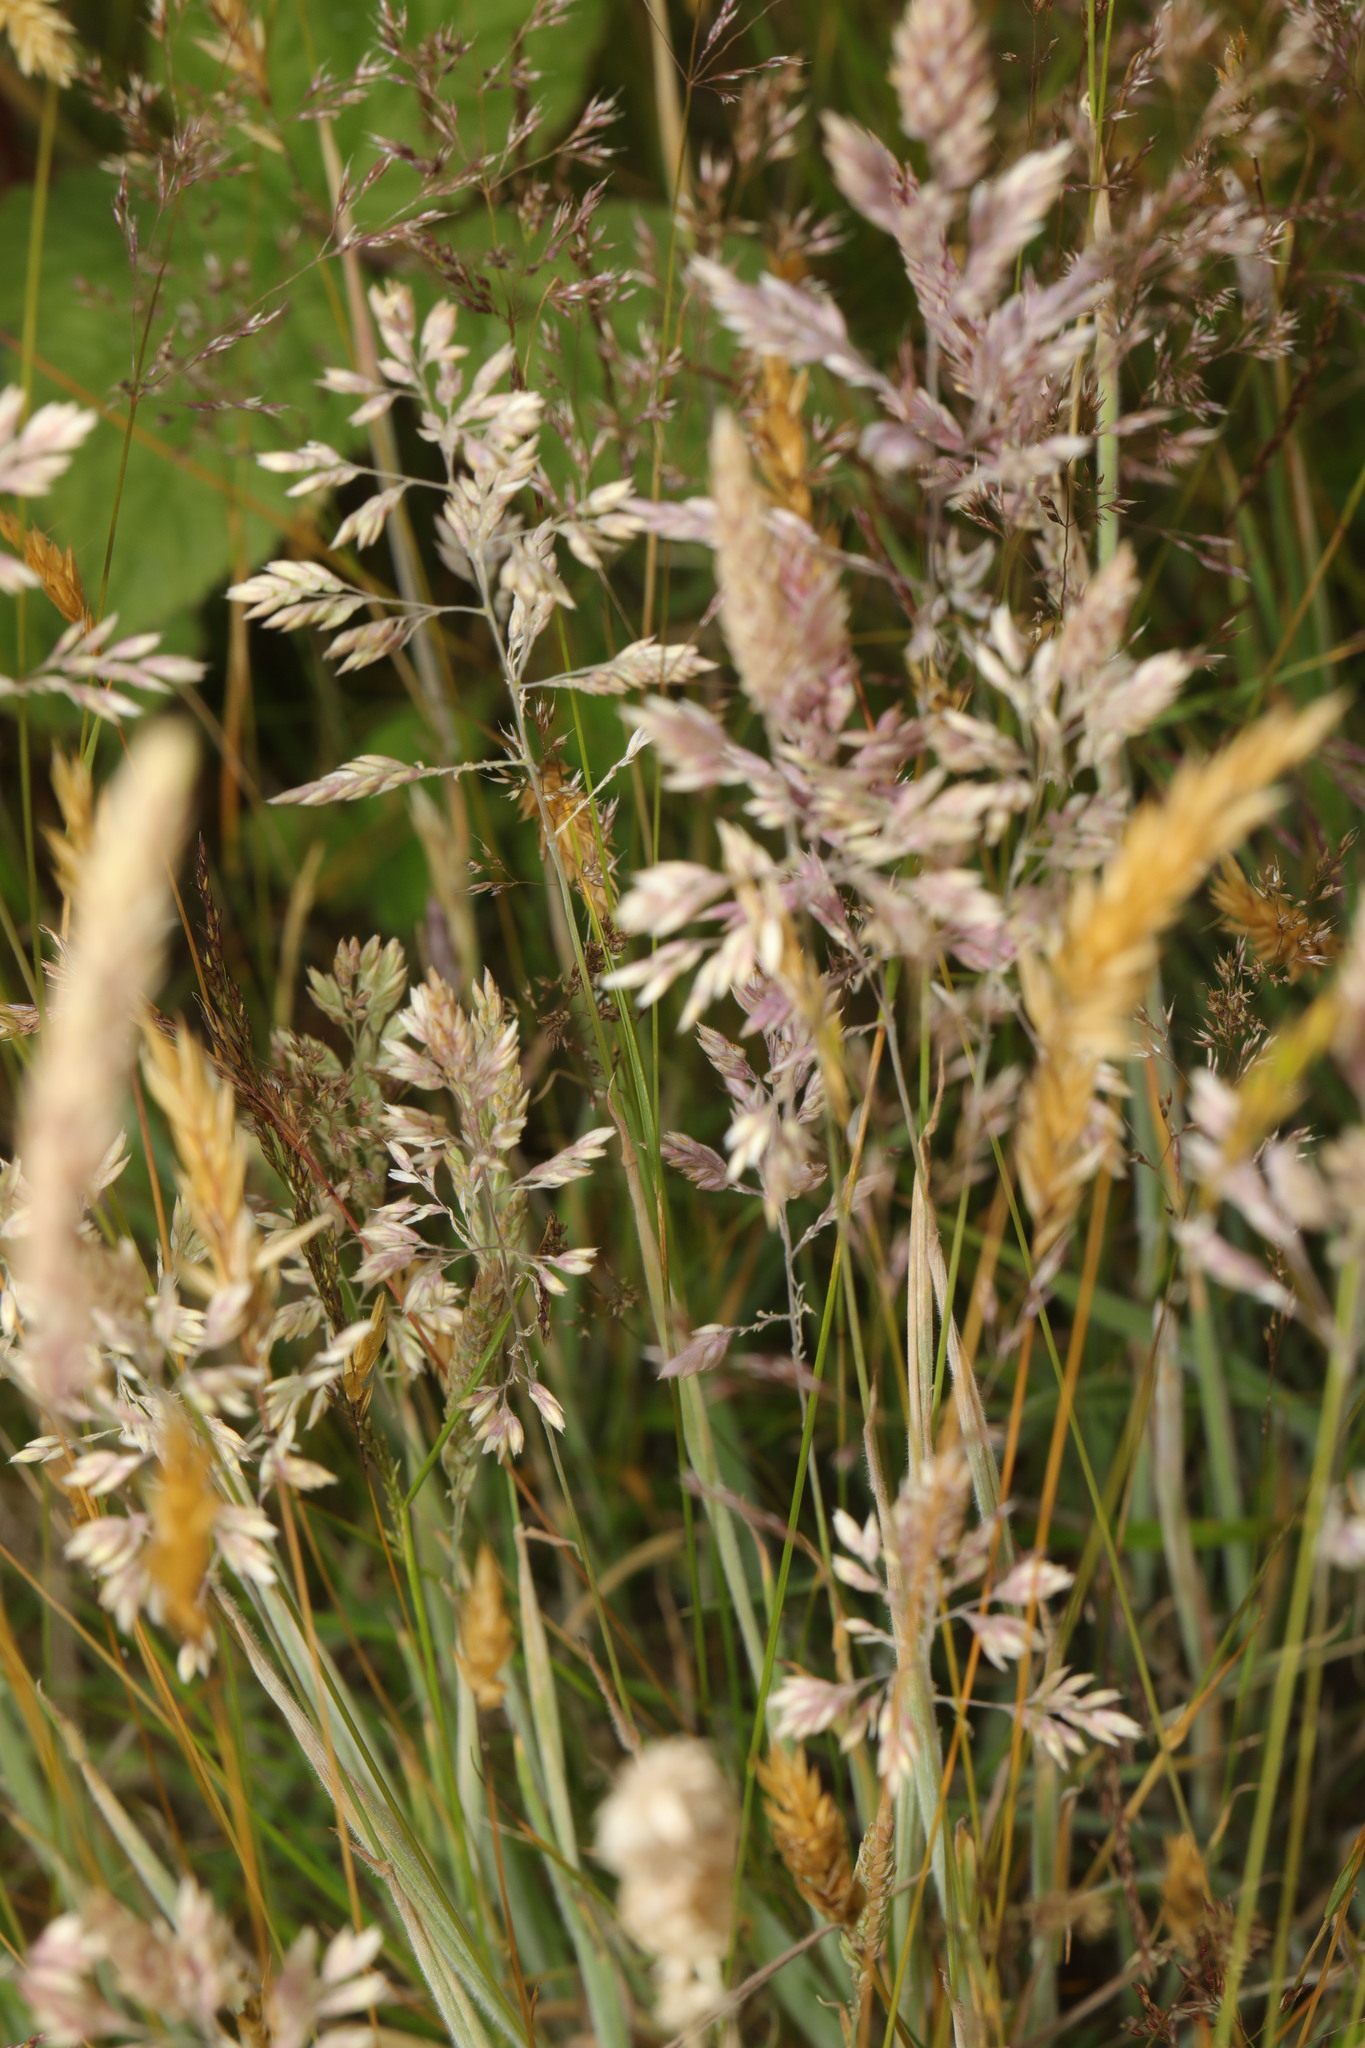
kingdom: Plantae
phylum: Tracheophyta
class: Liliopsida
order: Poales
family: Poaceae
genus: Holcus
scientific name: Holcus lanatus
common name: Yorkshire-fog
